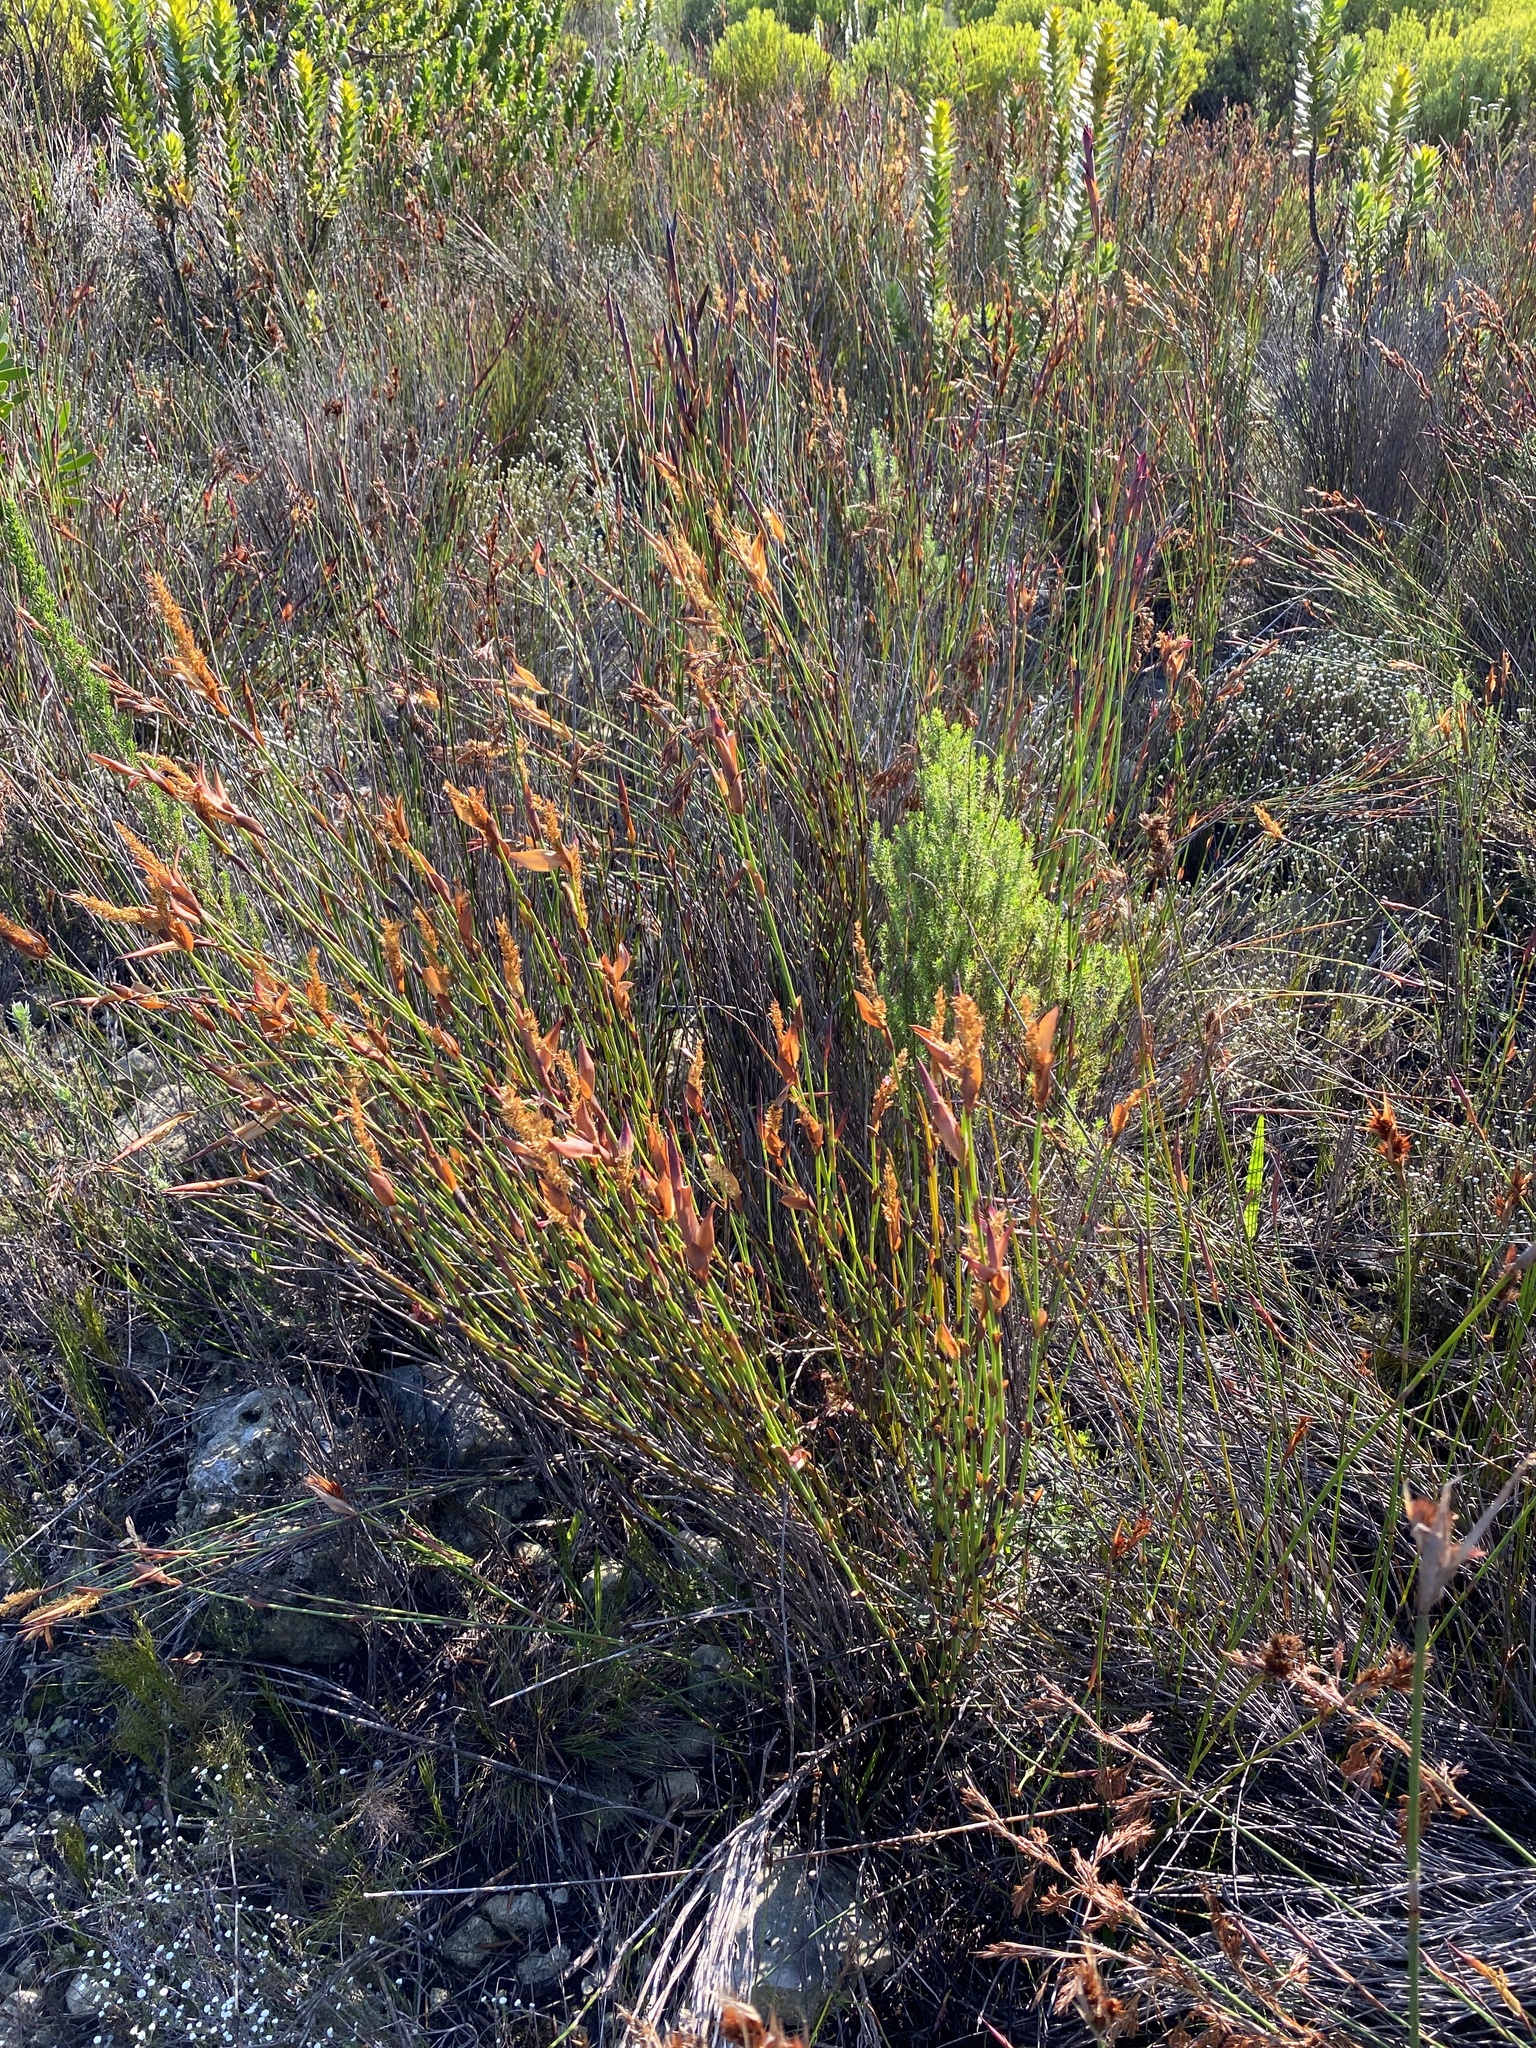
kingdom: Plantae
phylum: Tracheophyta
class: Liliopsida
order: Poales
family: Restionaceae
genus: Elegia
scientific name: Elegia muirii
